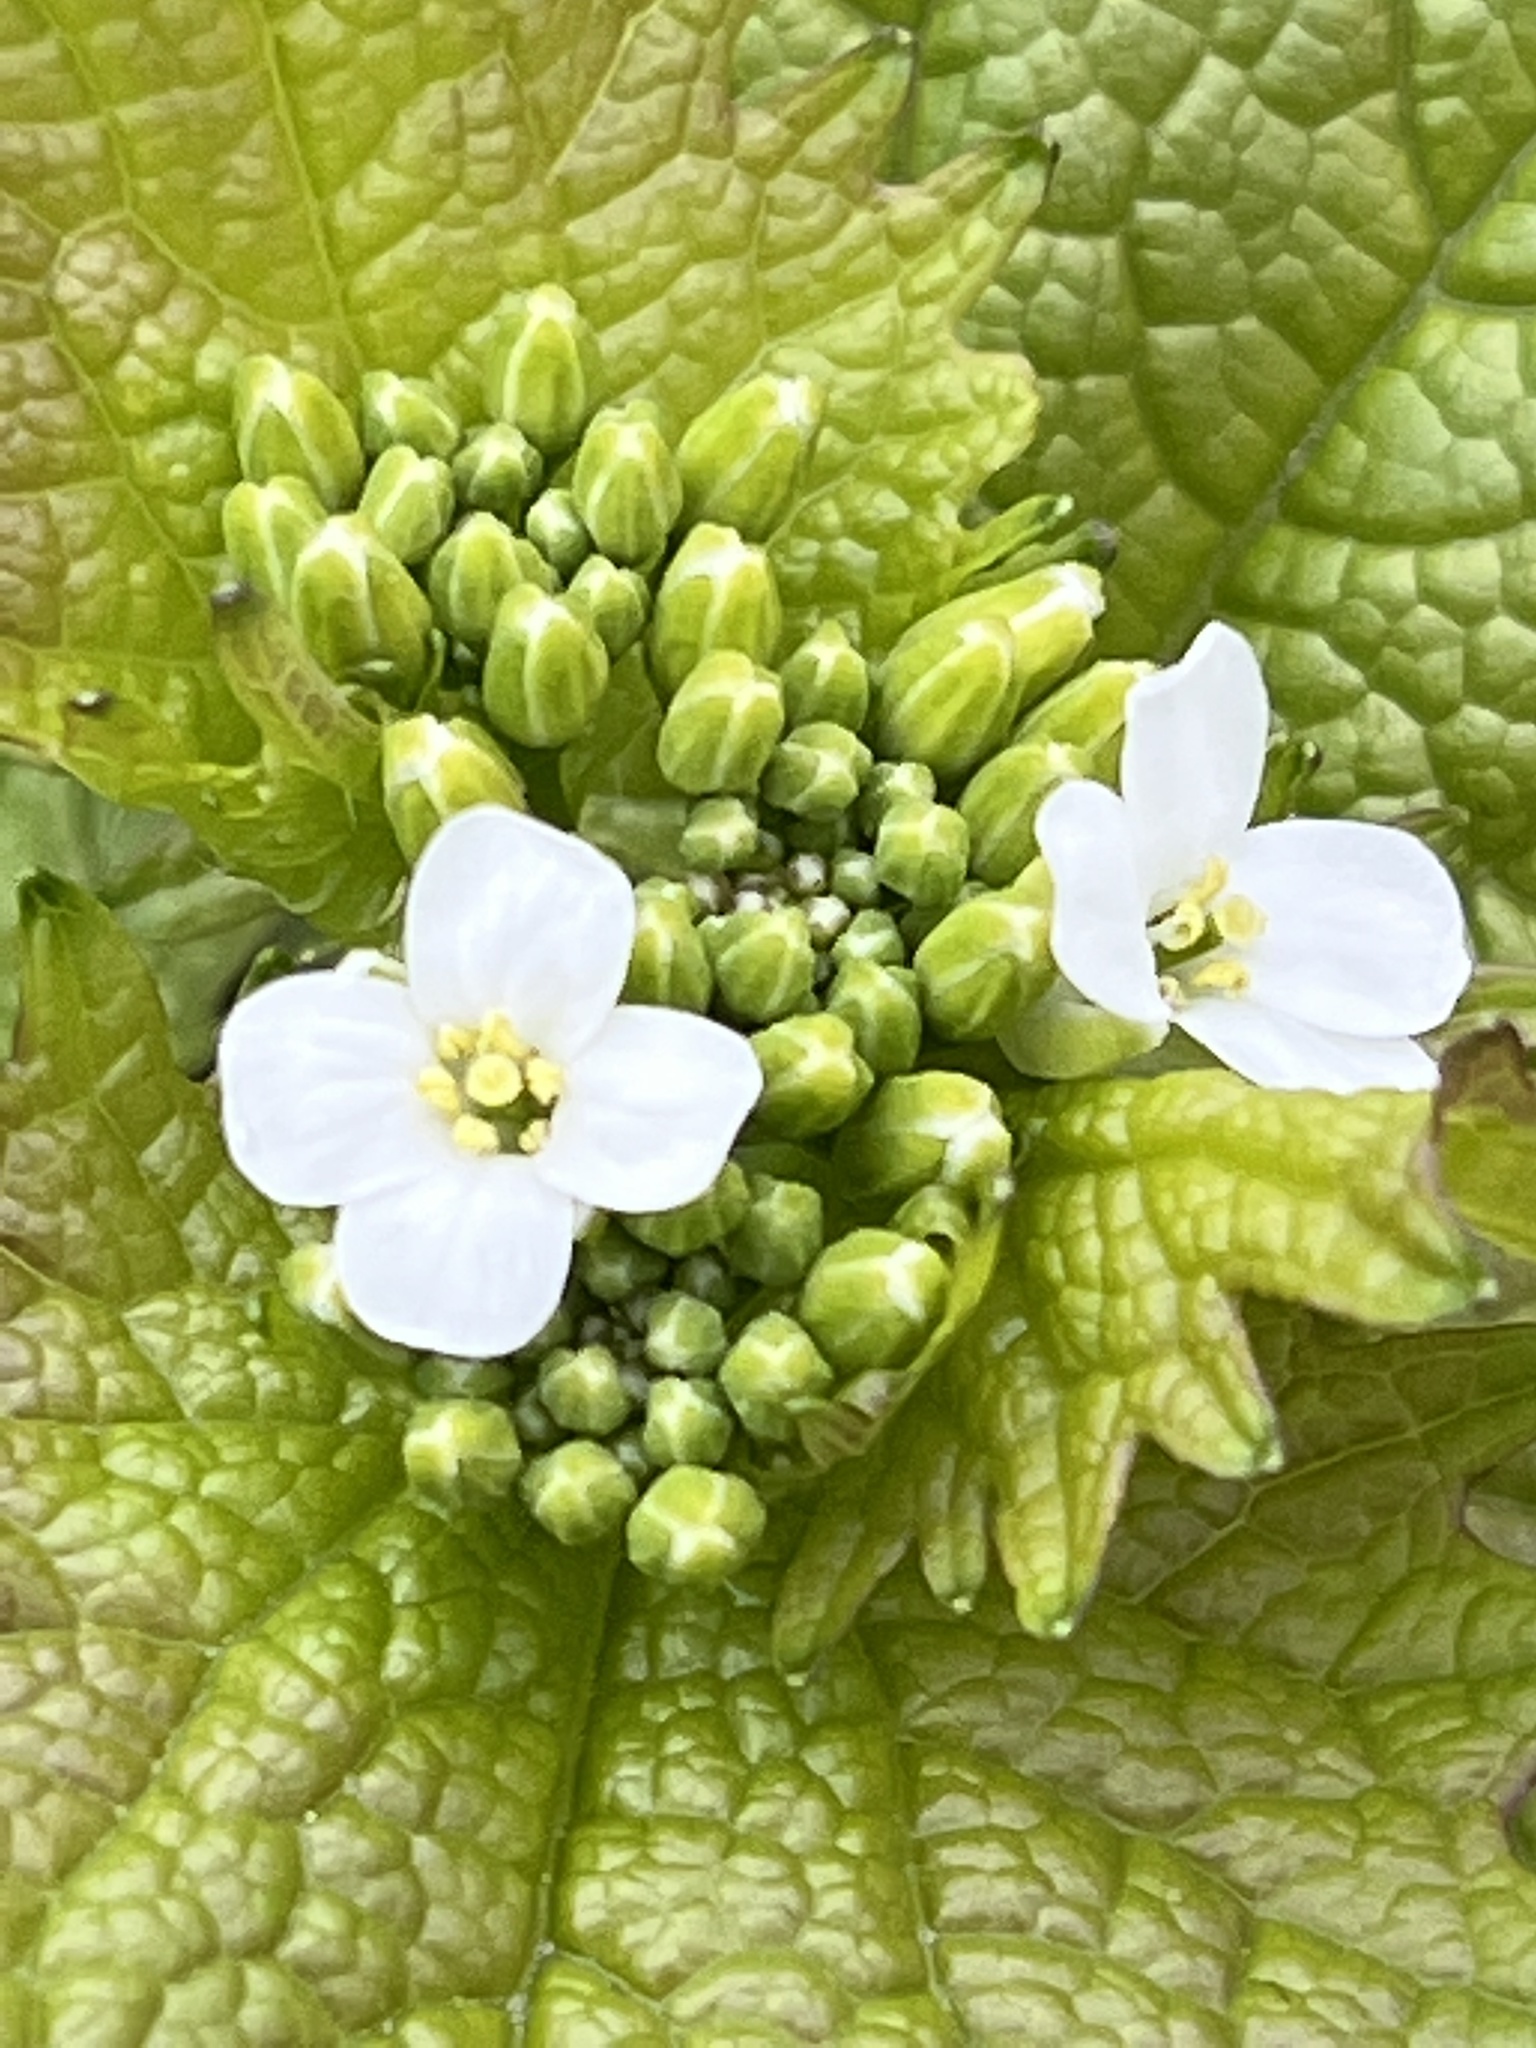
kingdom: Plantae
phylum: Tracheophyta
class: Magnoliopsida
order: Brassicales
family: Brassicaceae
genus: Alliaria
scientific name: Alliaria petiolata
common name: Garlic mustard
